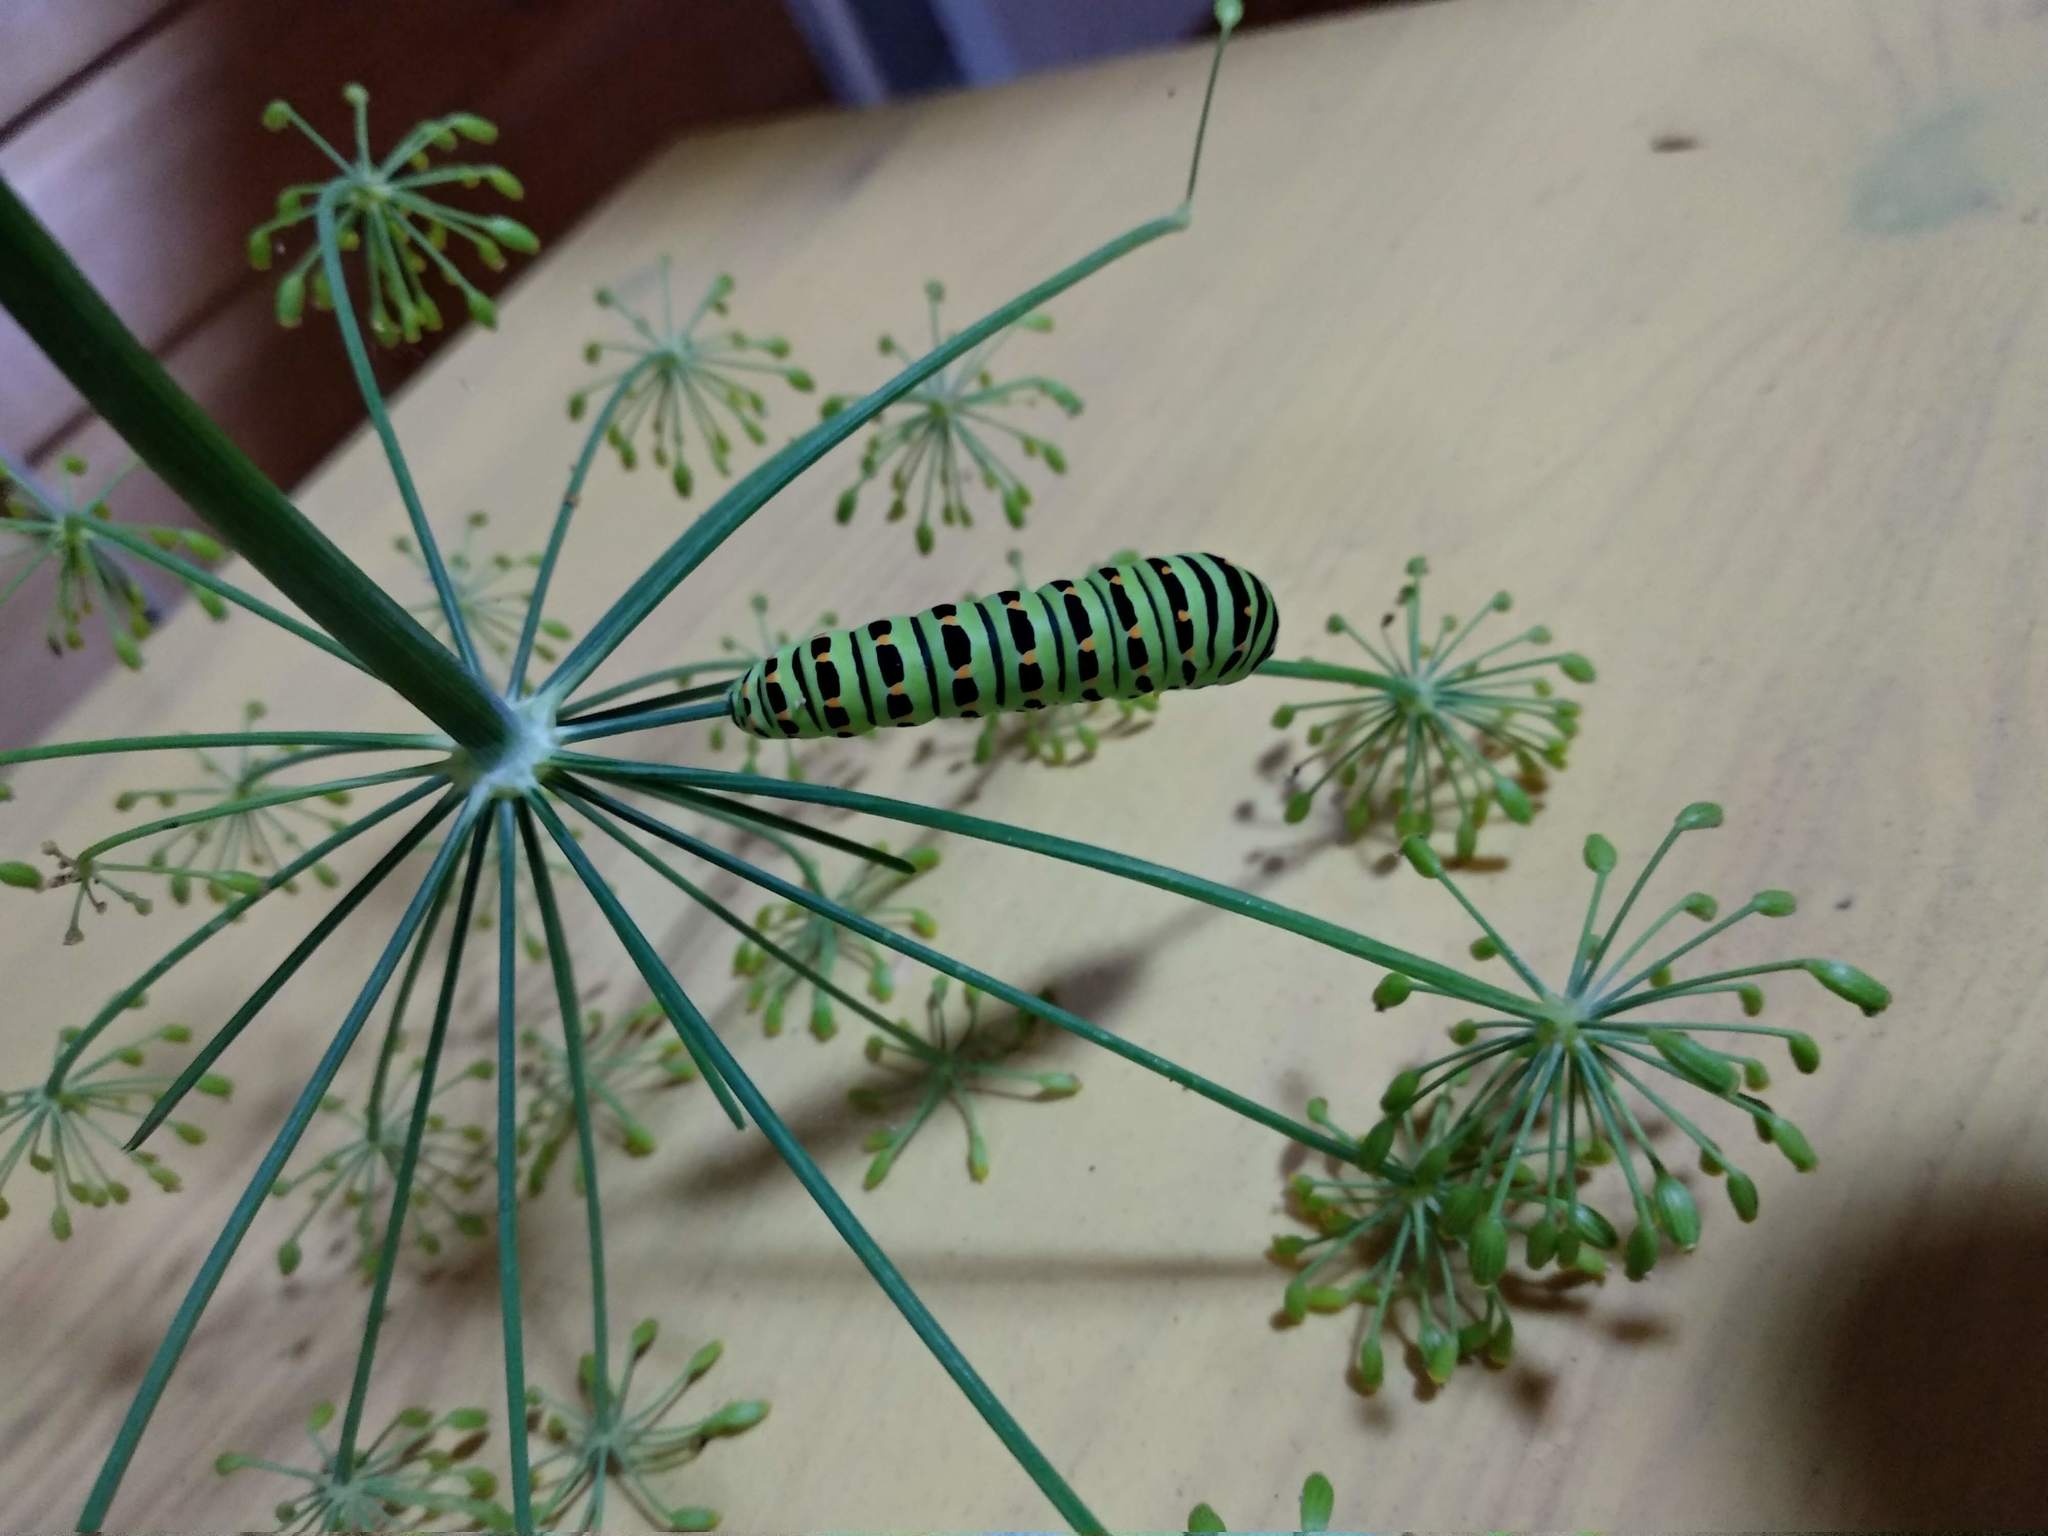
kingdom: Animalia
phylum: Arthropoda
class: Insecta
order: Lepidoptera
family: Papilionidae
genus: Papilio
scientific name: Papilio machaon
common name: Swallowtail
